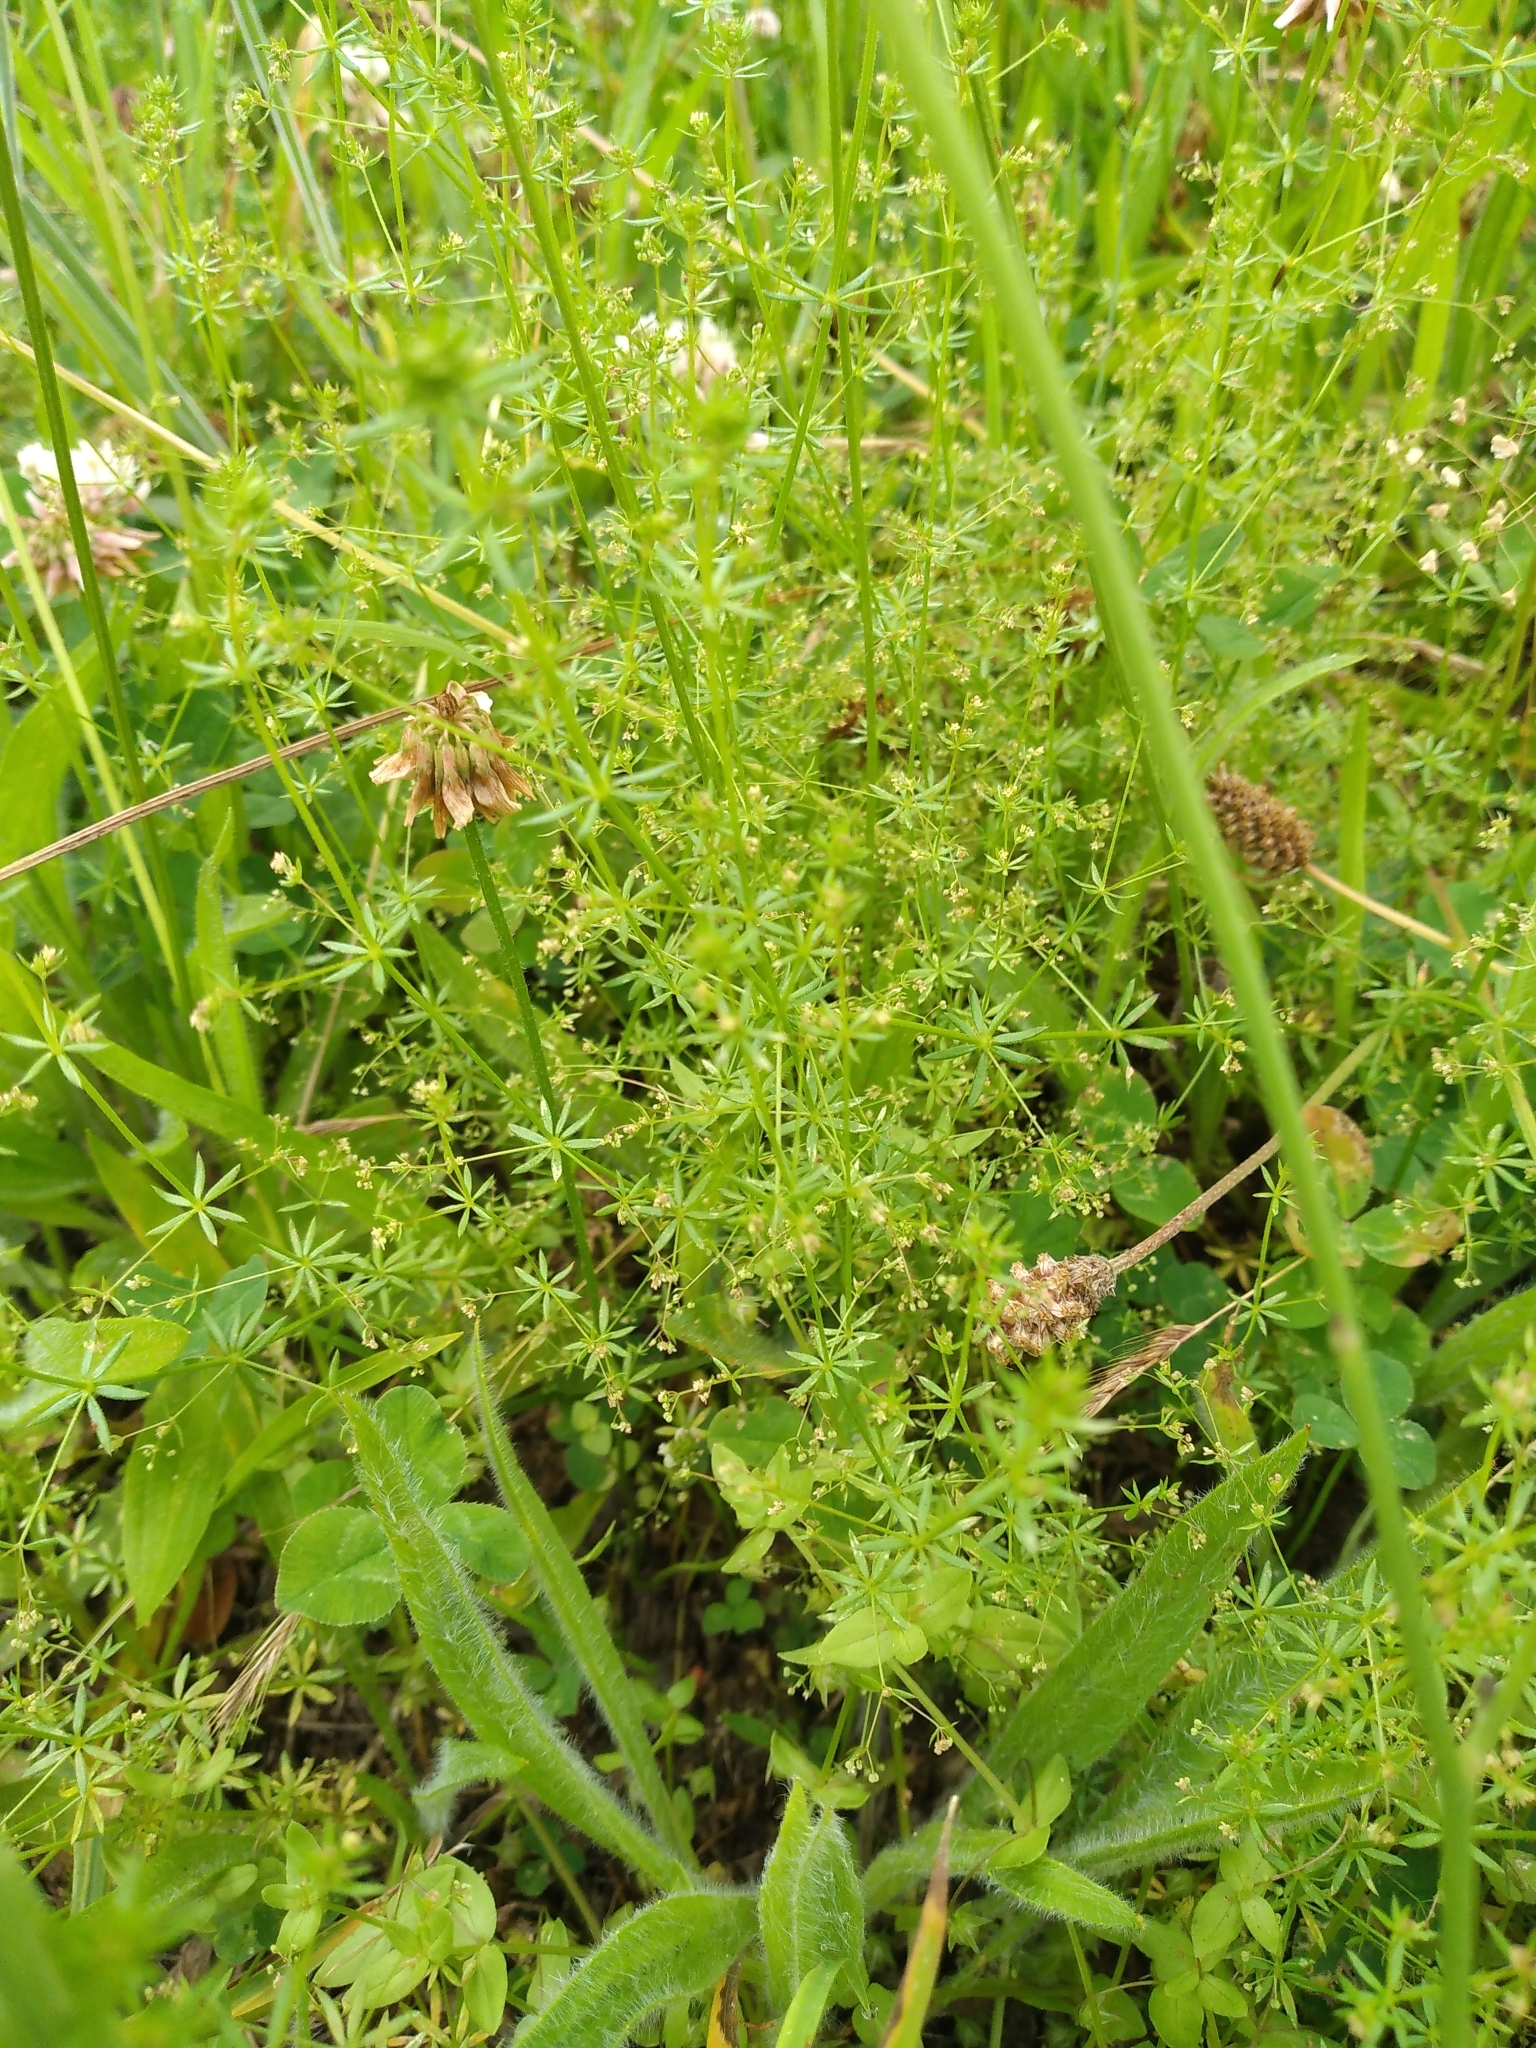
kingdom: Plantae
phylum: Tracheophyta
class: Magnoliopsida
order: Gentianales
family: Rubiaceae
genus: Galium
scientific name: Galium divaricatum
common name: Lamarck's bedstraw
